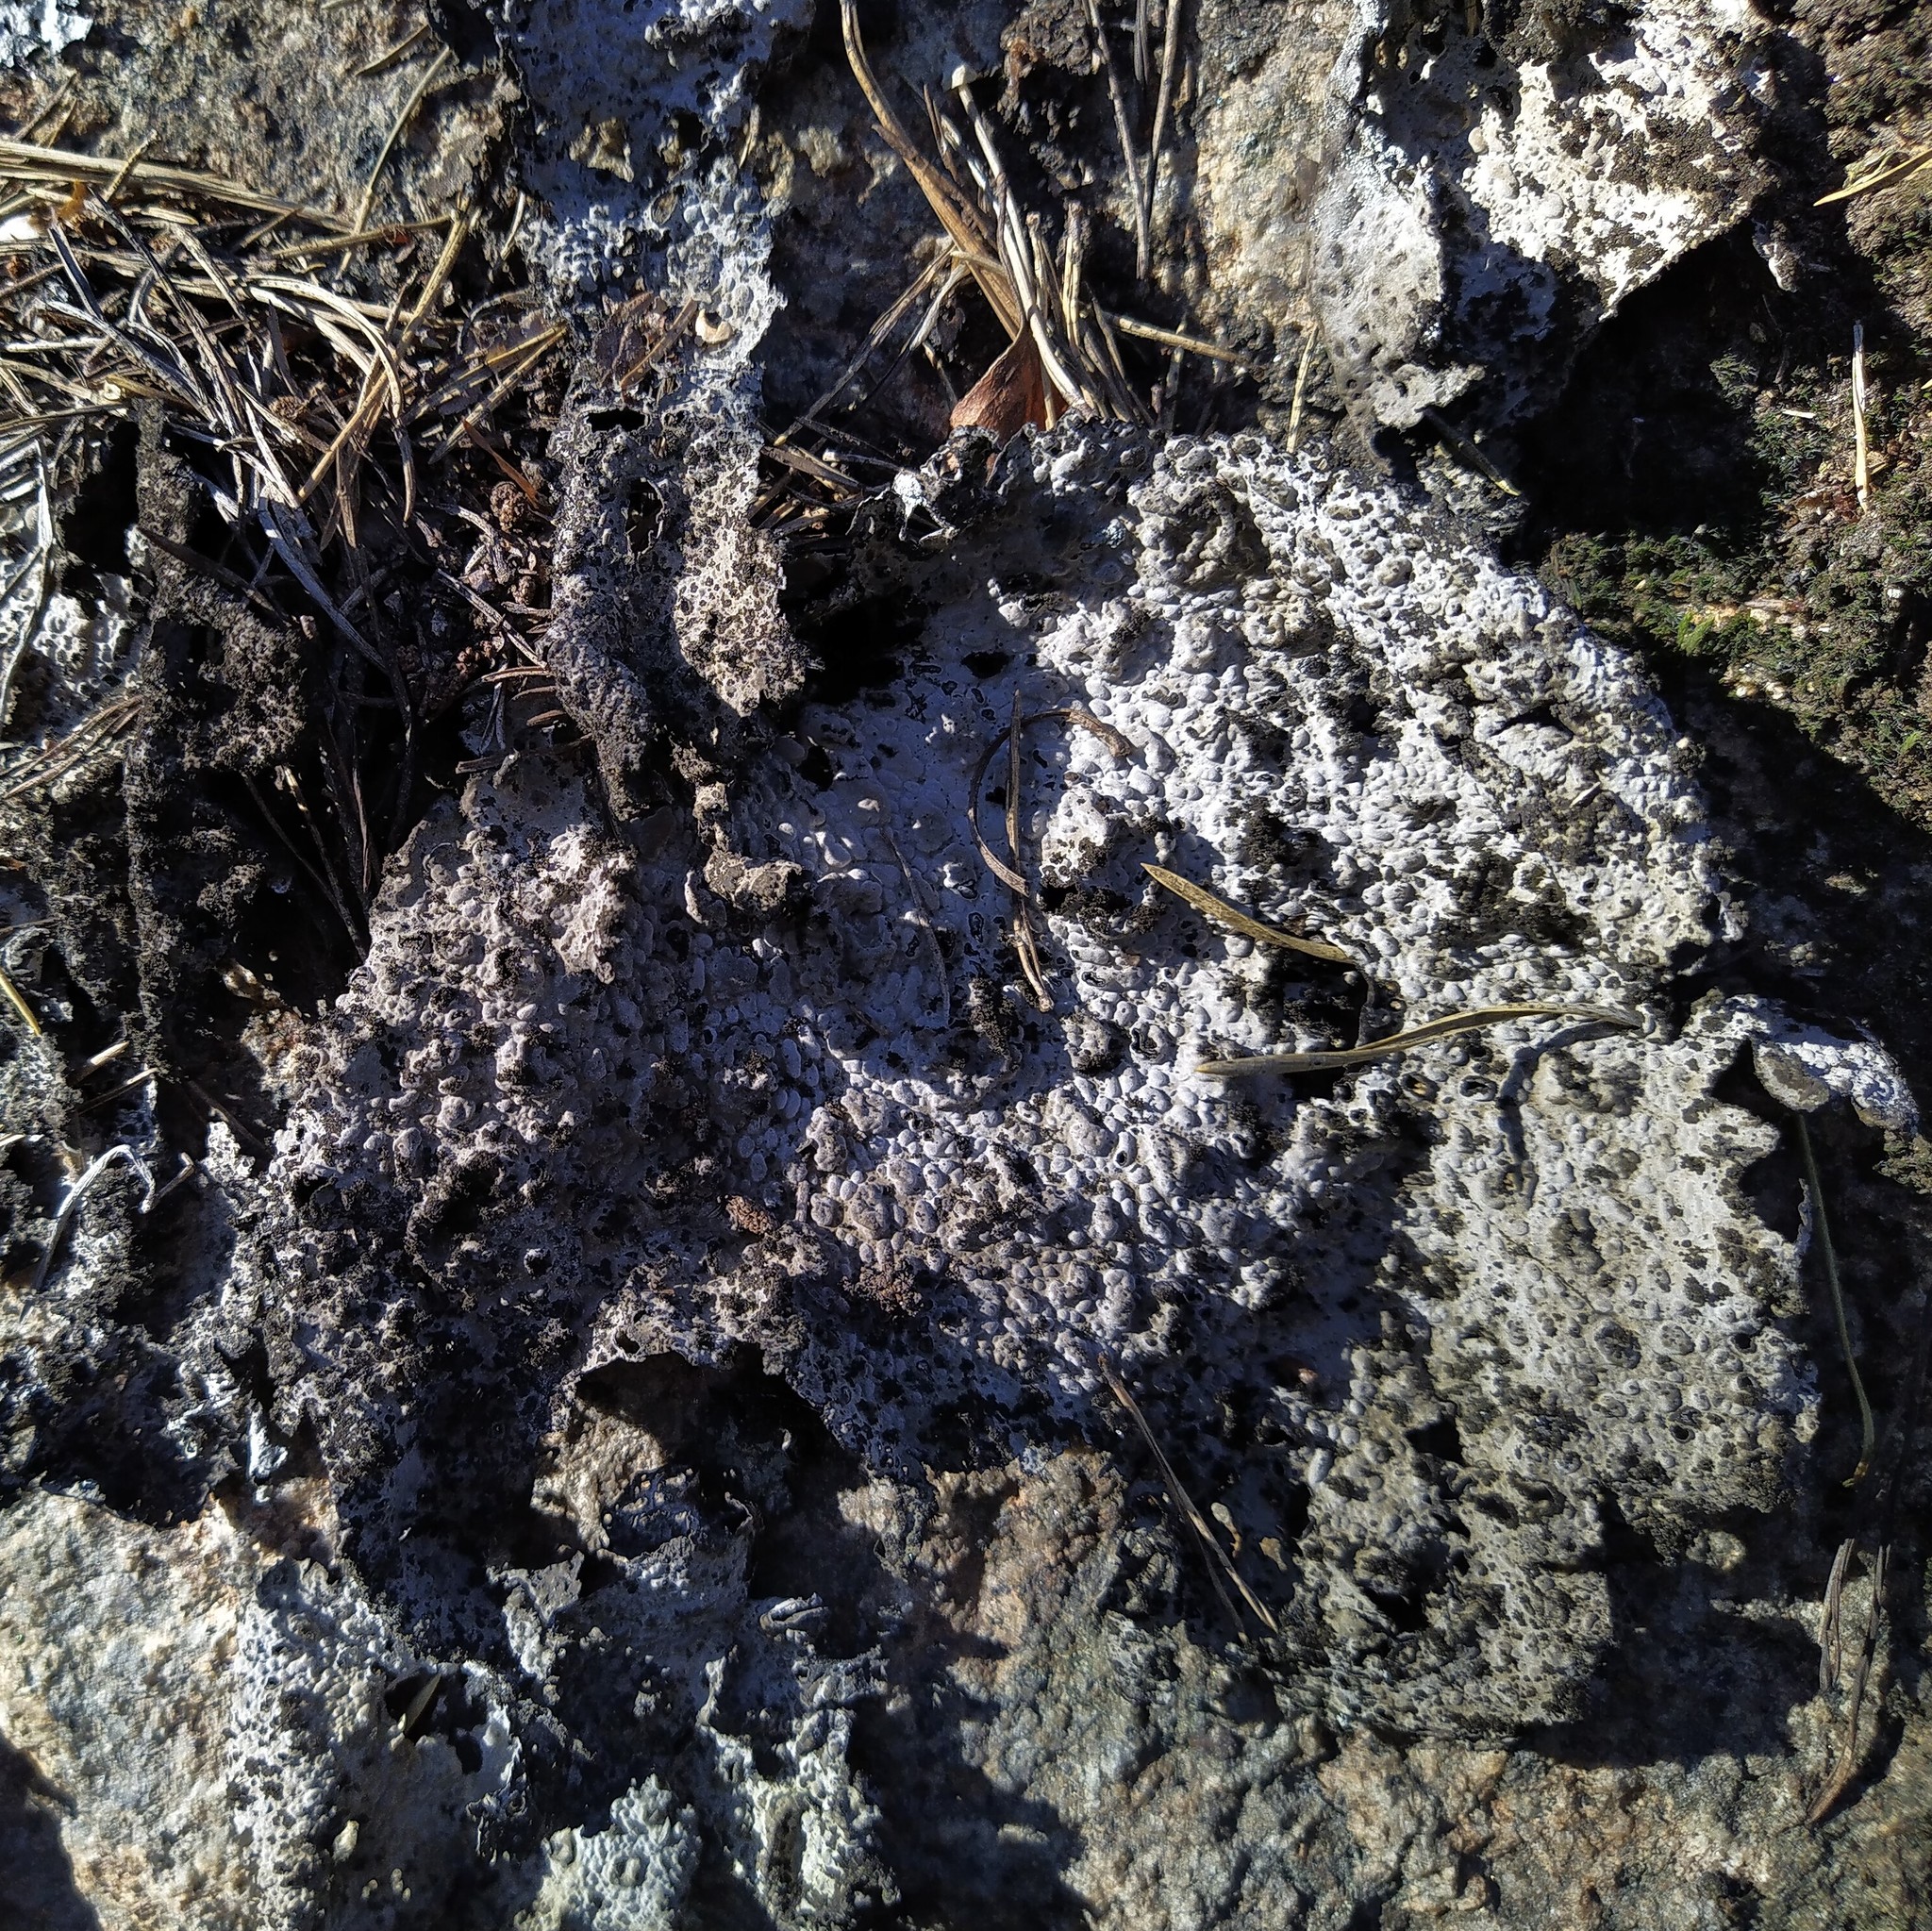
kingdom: Fungi
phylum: Ascomycota
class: Lecanoromycetes
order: Umbilicariales
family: Umbilicariaceae
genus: Lasallia
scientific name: Lasallia pustulata
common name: Blistered toadskin lichen
